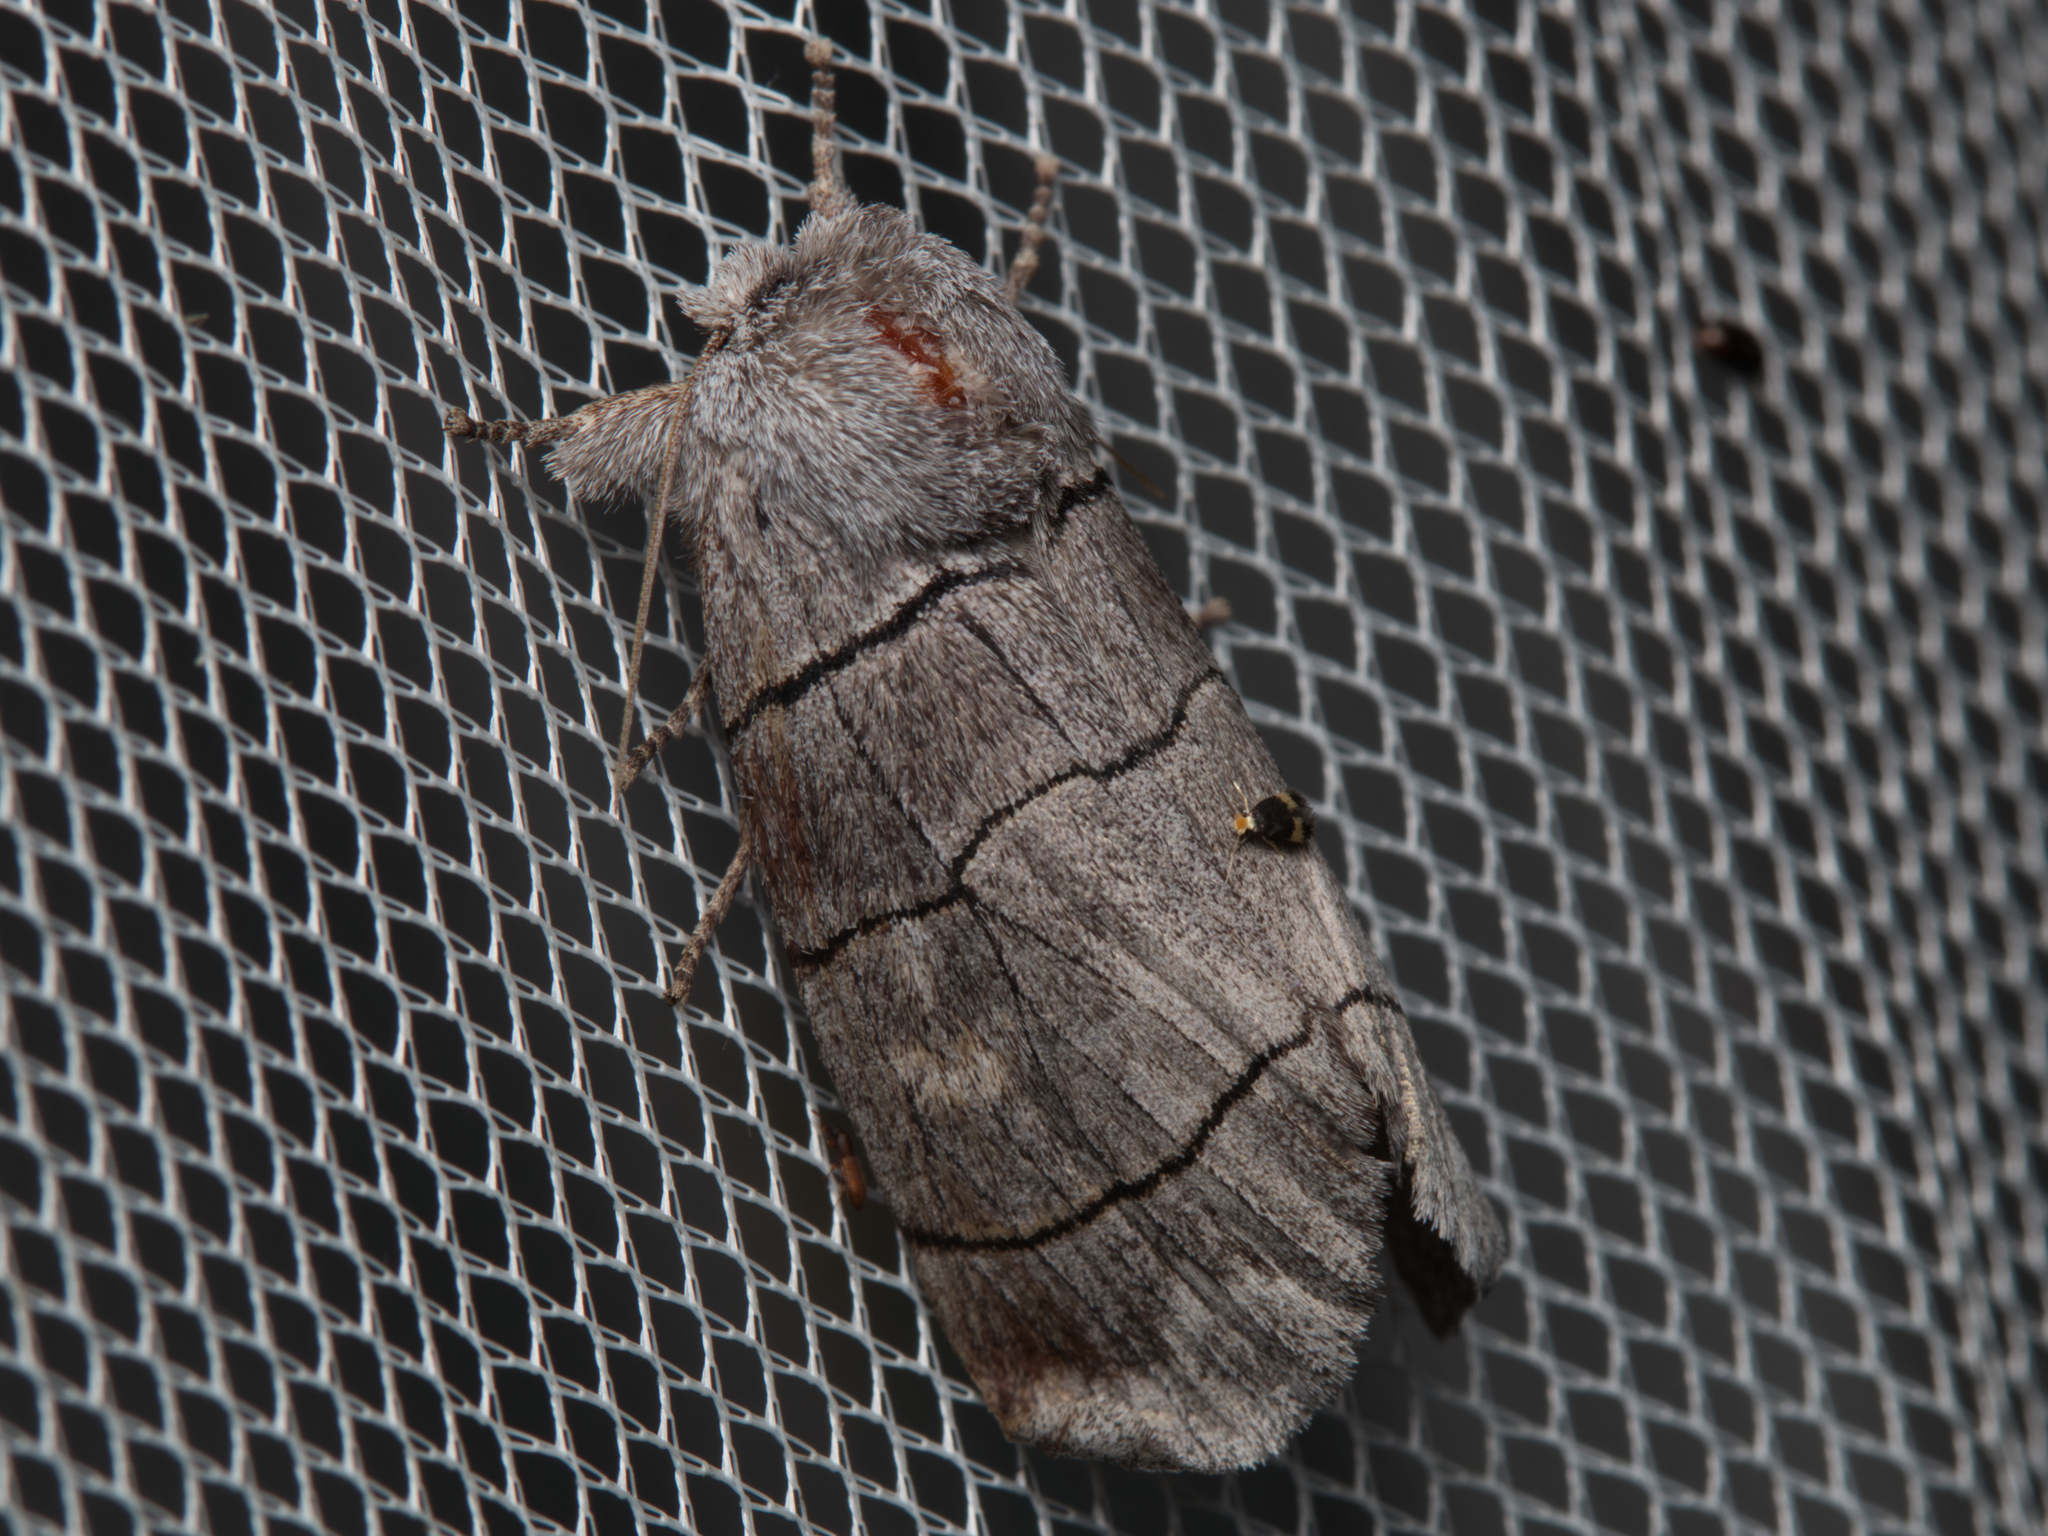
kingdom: Animalia
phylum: Arthropoda
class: Insecta
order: Lepidoptera
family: Notodontidae
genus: Paradestolmia
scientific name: Paradestolmia nigrolinea
